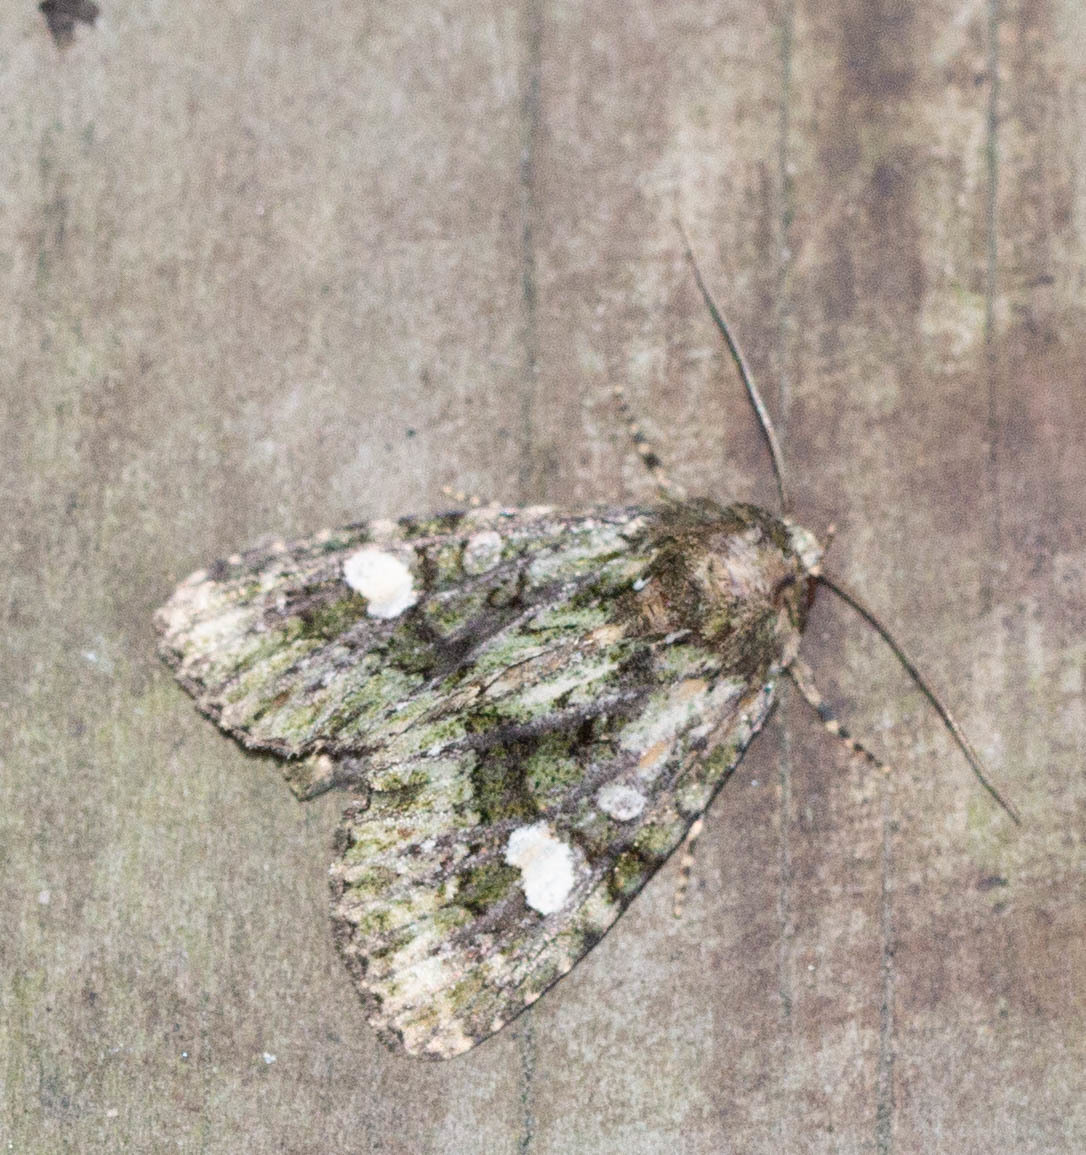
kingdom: Animalia
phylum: Arthropoda
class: Insecta
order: Lepidoptera
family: Noctuidae
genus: Phosphila
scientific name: Phosphila miselioides
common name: Spotted phosphila moth
